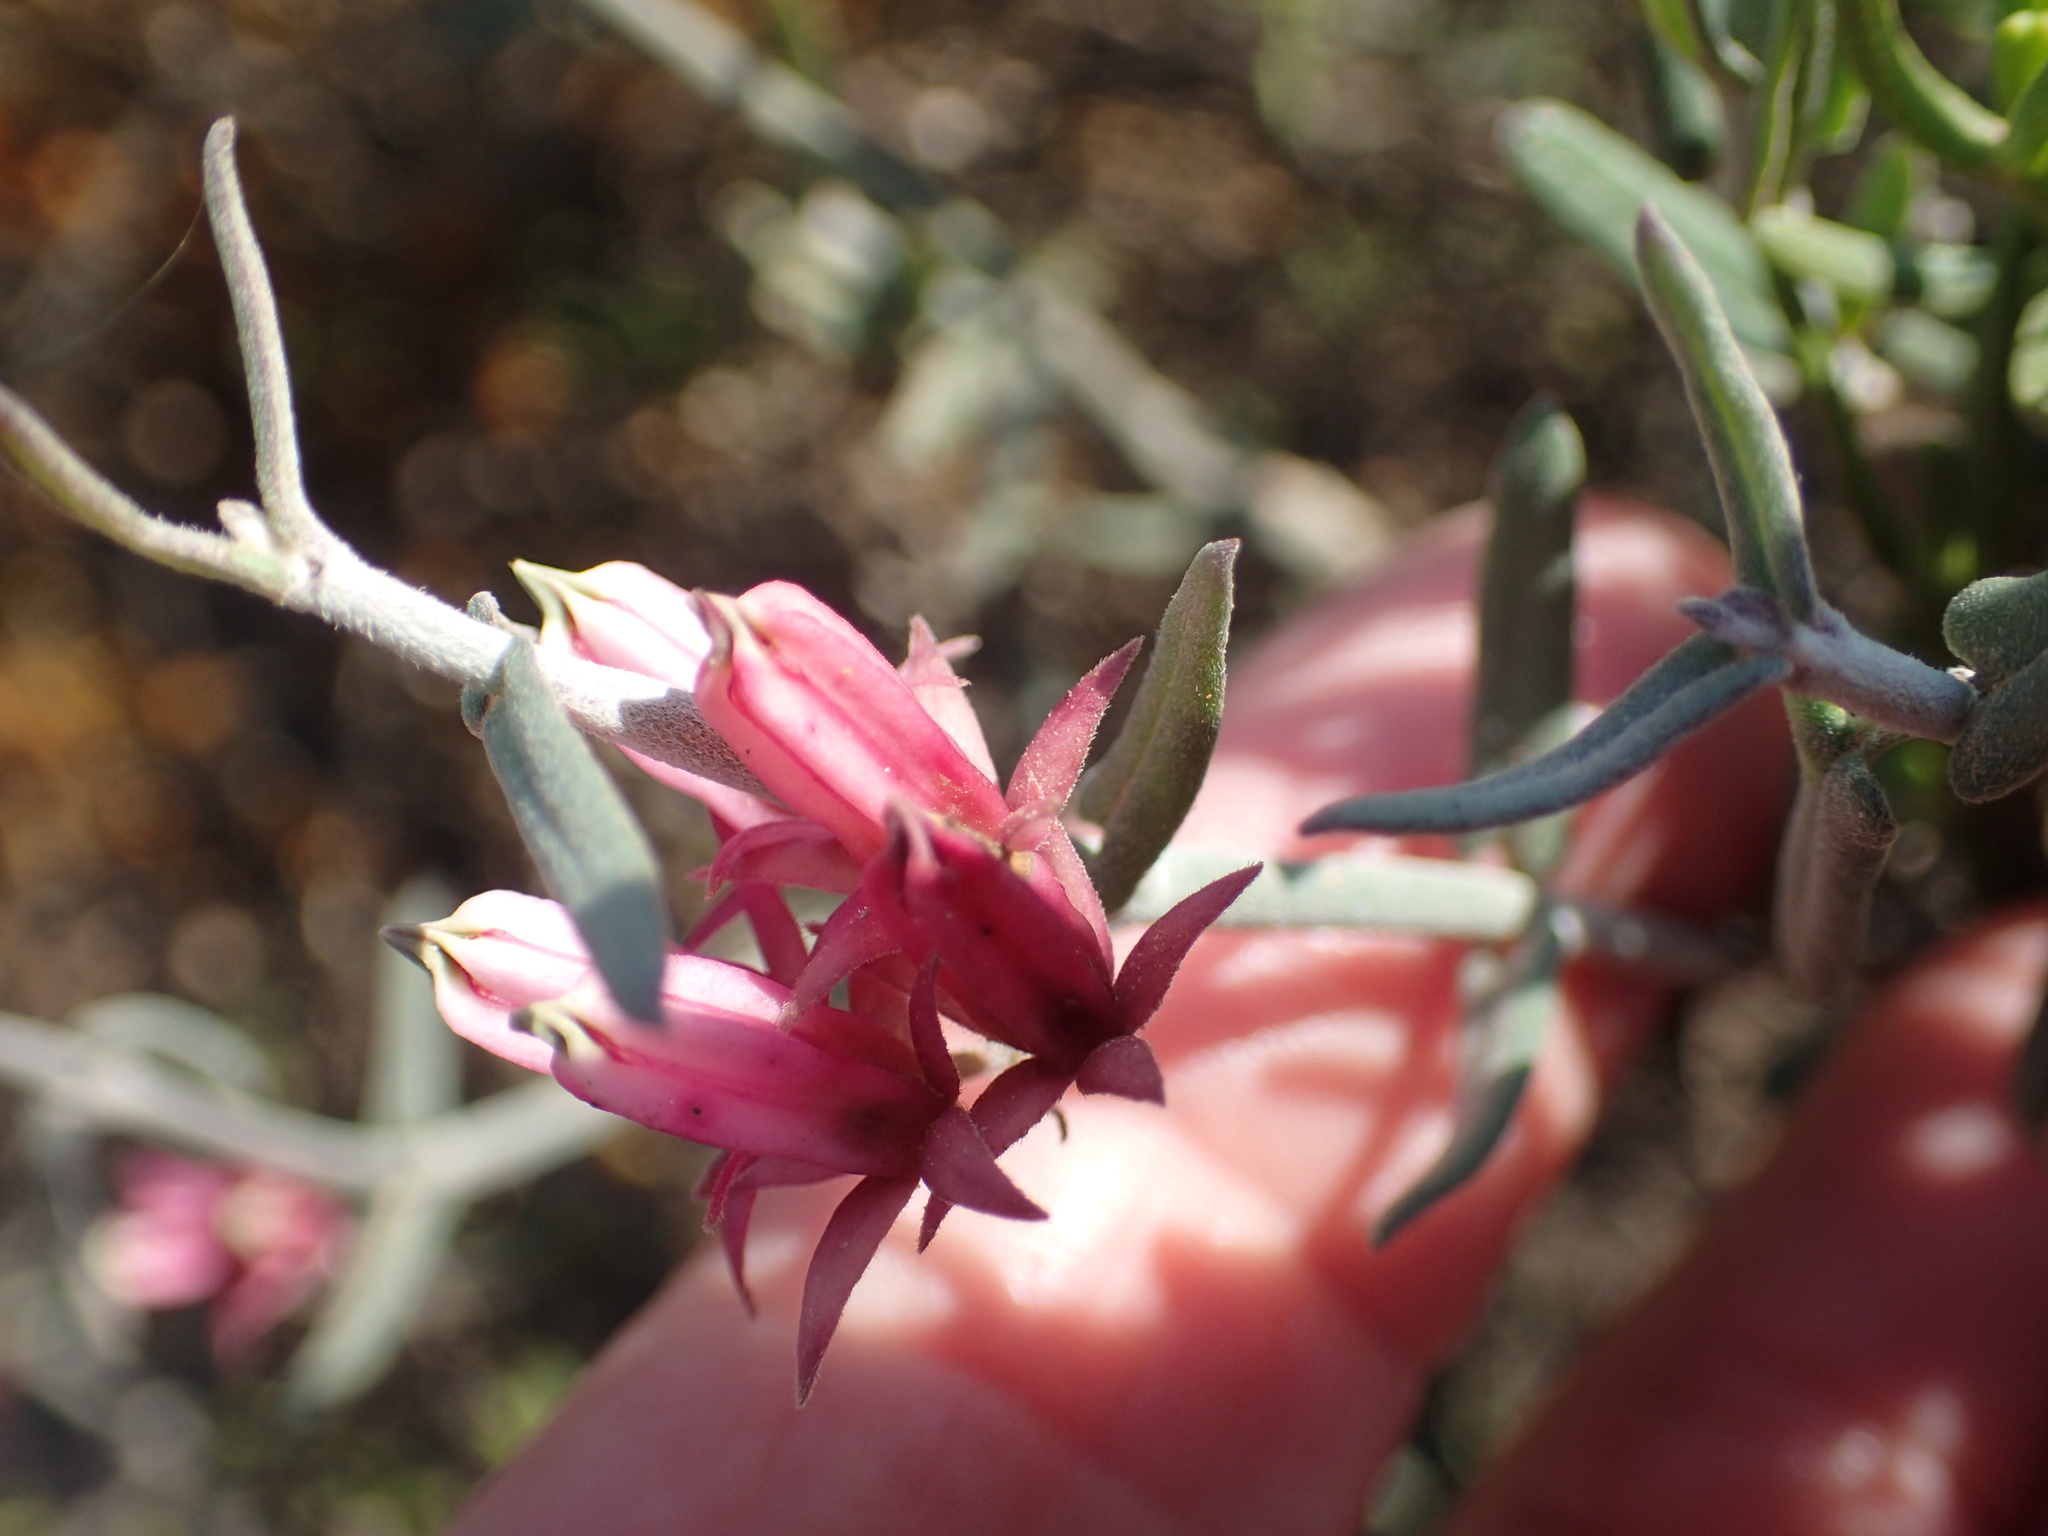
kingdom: Plantae
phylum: Tracheophyta
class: Magnoliopsida
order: Gentianales
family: Apocynaceae
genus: Microloma
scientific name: Microloma sagittatum
